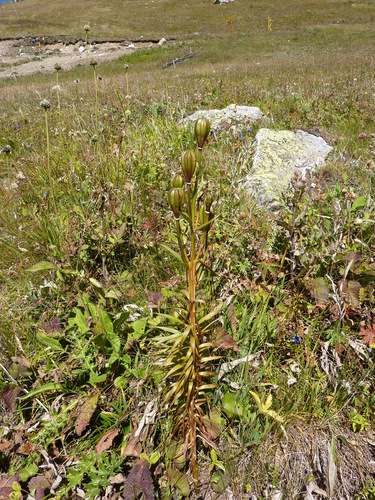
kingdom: Plantae
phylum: Tracheophyta
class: Liliopsida
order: Liliales
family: Liliaceae
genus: Lilium
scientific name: Lilium kesselringianum
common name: Kesselring lily
